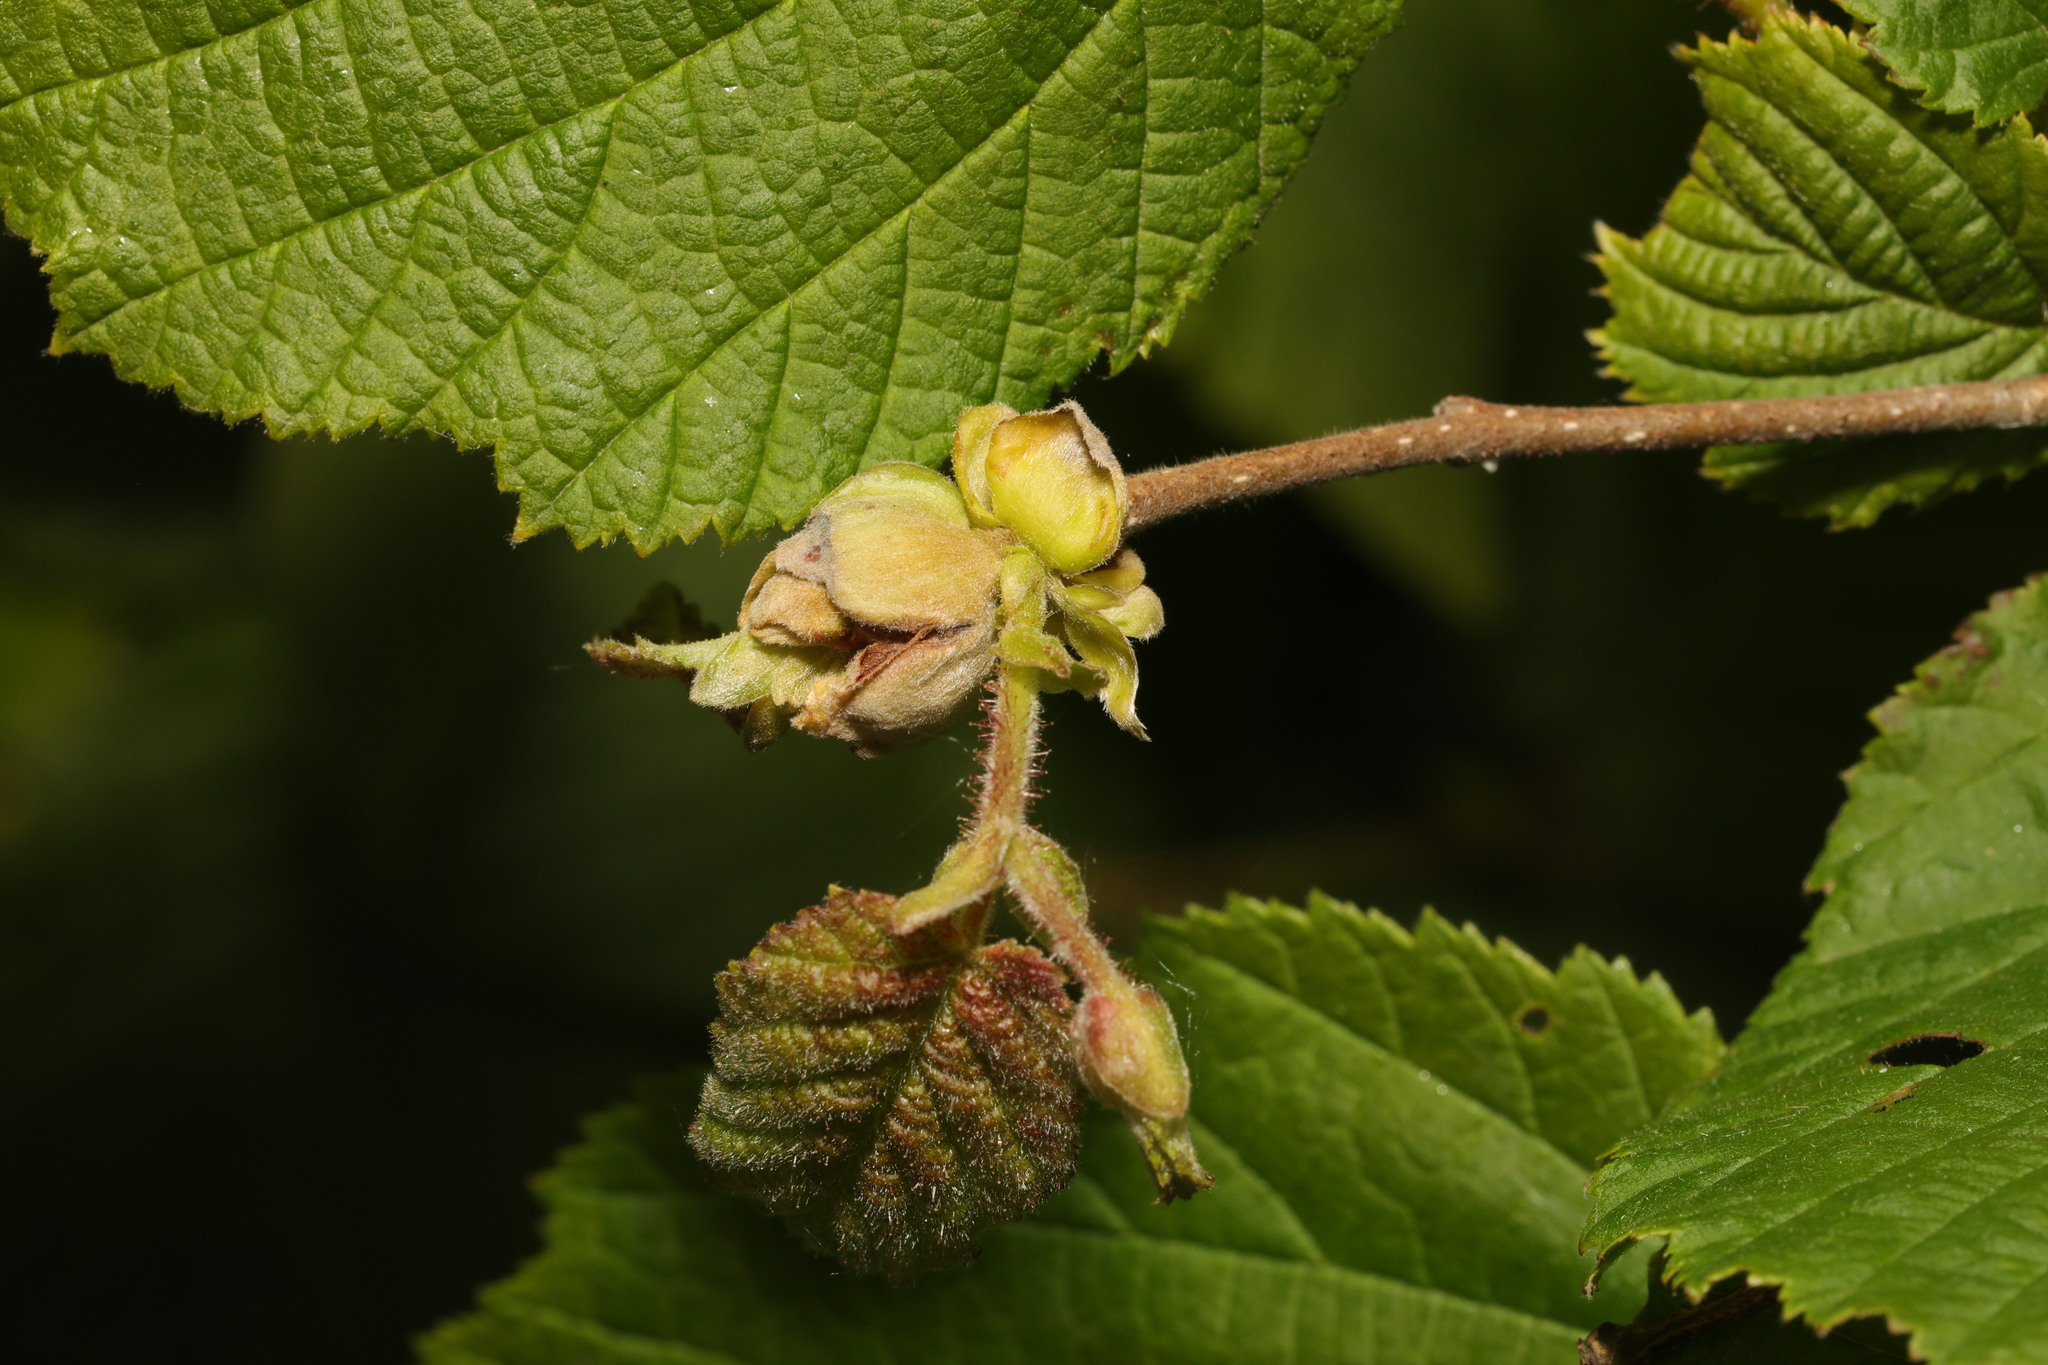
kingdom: Animalia
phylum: Arthropoda
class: Arachnida
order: Trombidiformes
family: Phytoptidae
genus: Phytoptus
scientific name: Phytoptus avellanae
